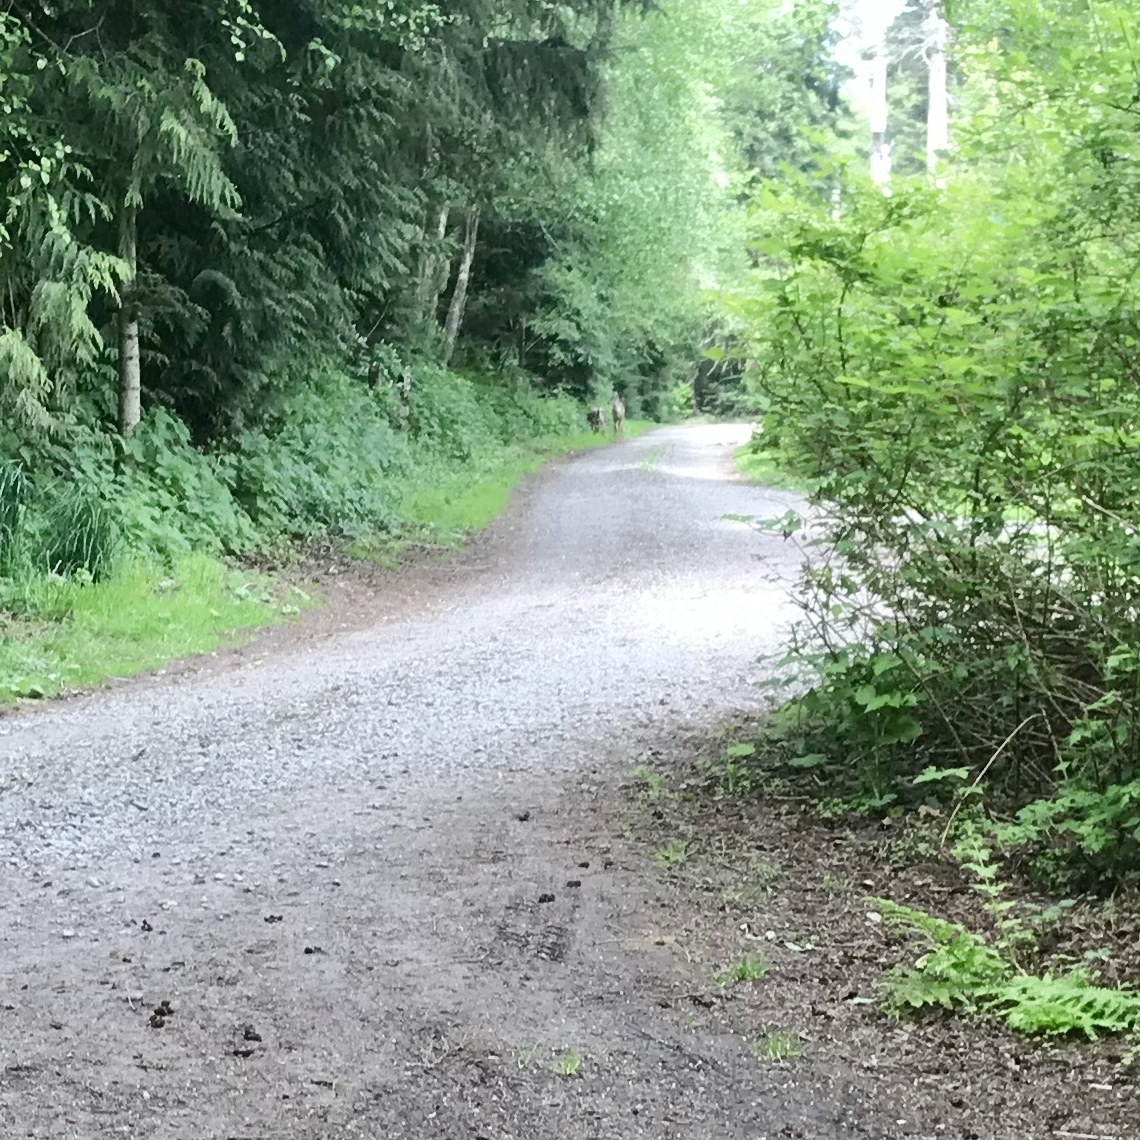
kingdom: Animalia
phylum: Chordata
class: Mammalia
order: Artiodactyla
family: Cervidae
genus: Odocoileus
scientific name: Odocoileus hemionus
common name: Mule deer
